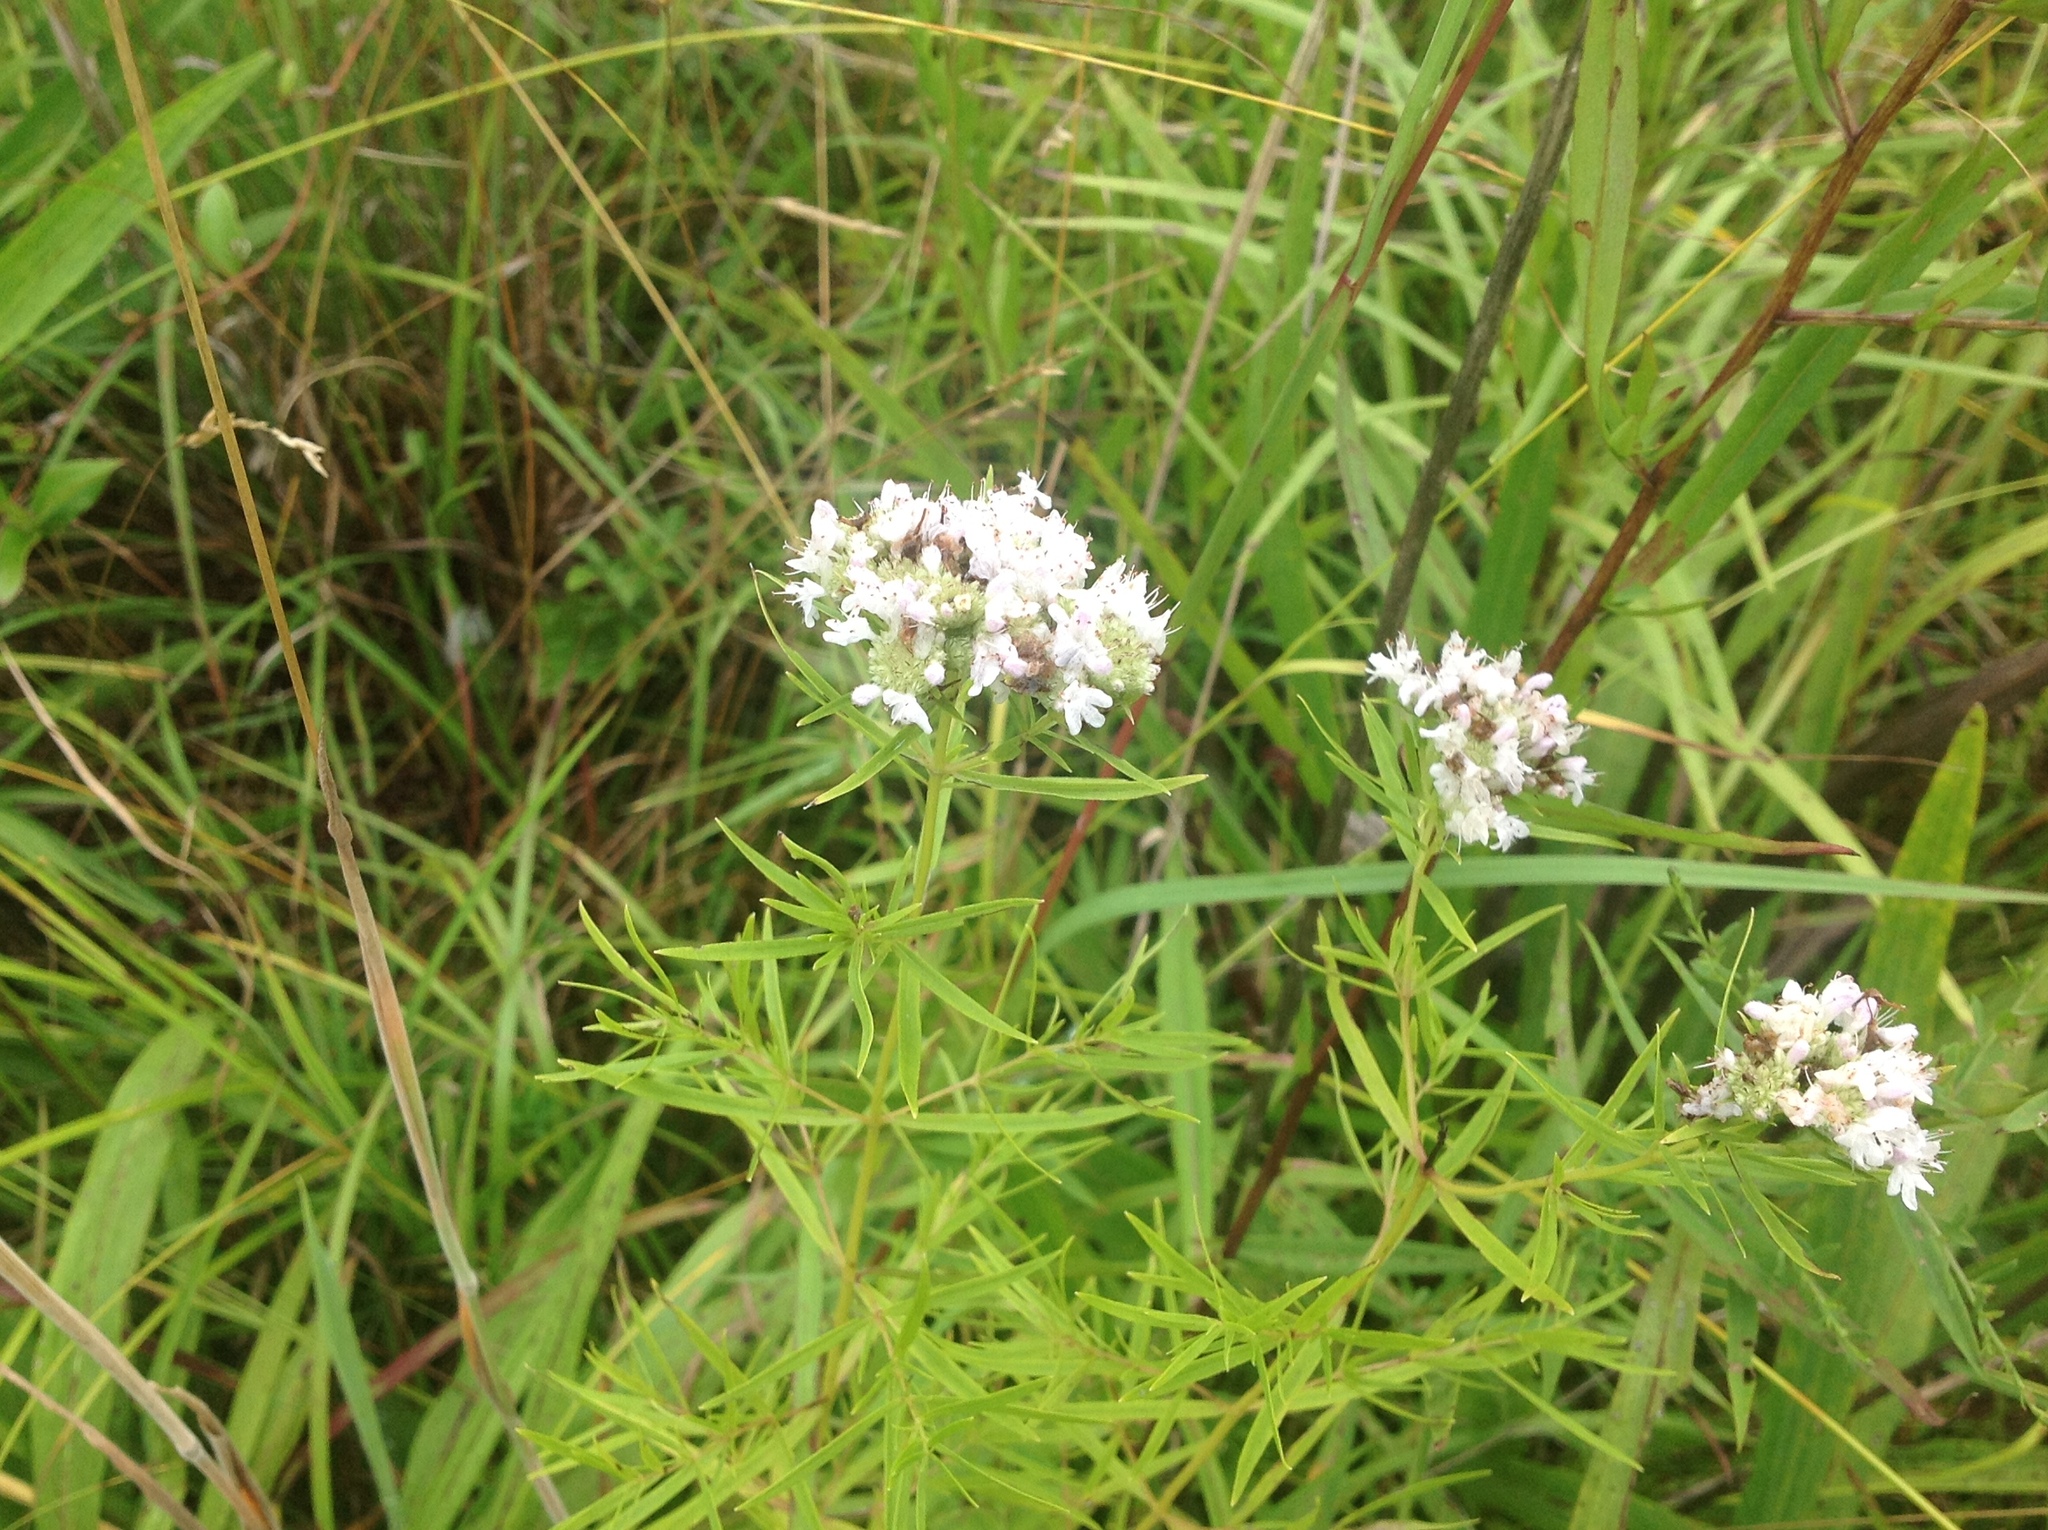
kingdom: Plantae
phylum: Tracheophyta
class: Magnoliopsida
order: Lamiales
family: Lamiaceae
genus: Pycnanthemum
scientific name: Pycnanthemum tenuifolium
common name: Narrow-leaf mountain-mint
